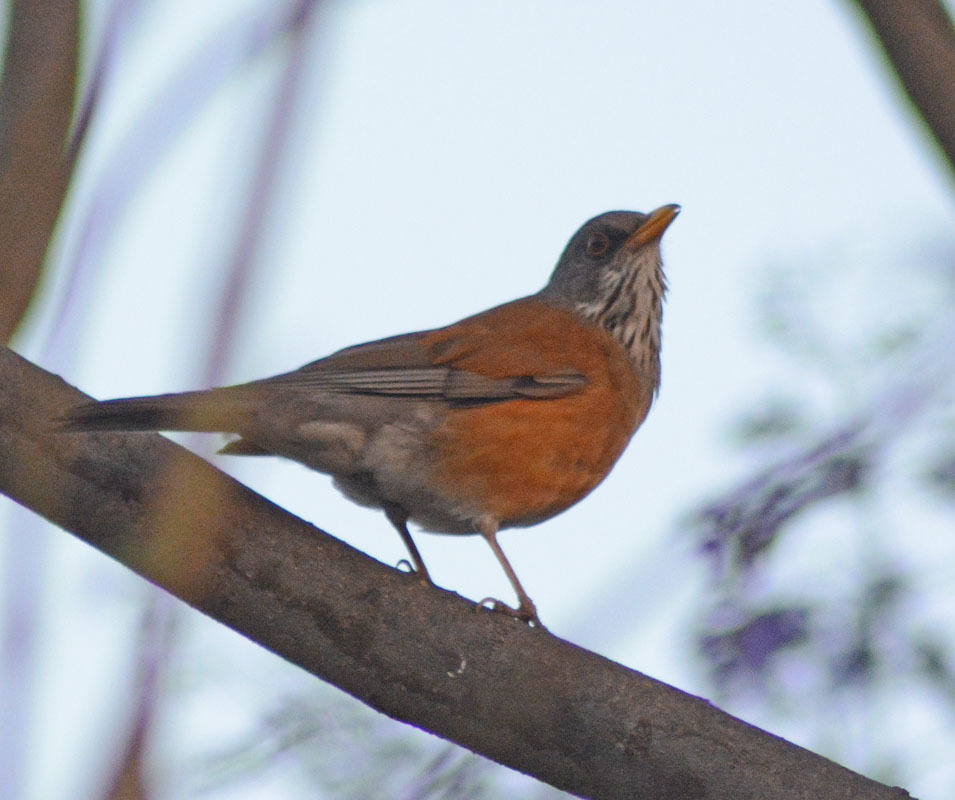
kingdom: Animalia
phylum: Chordata
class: Aves
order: Passeriformes
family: Turdidae
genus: Turdus
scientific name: Turdus rufopalliatus
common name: Rufous-backed robin
